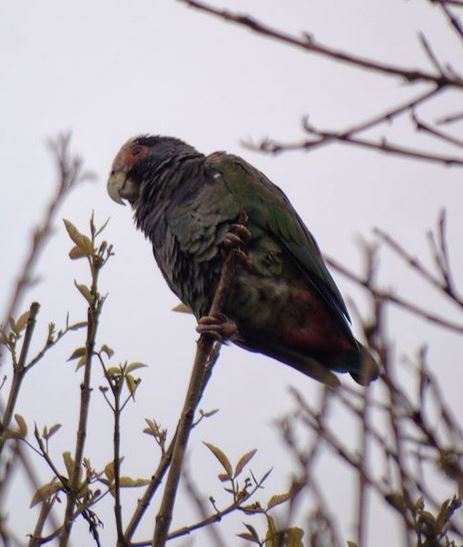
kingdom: Animalia
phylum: Chordata
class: Aves
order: Psittaciformes
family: Psittacidae
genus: Pionus
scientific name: Pionus senilis
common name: White-crowned parrot
